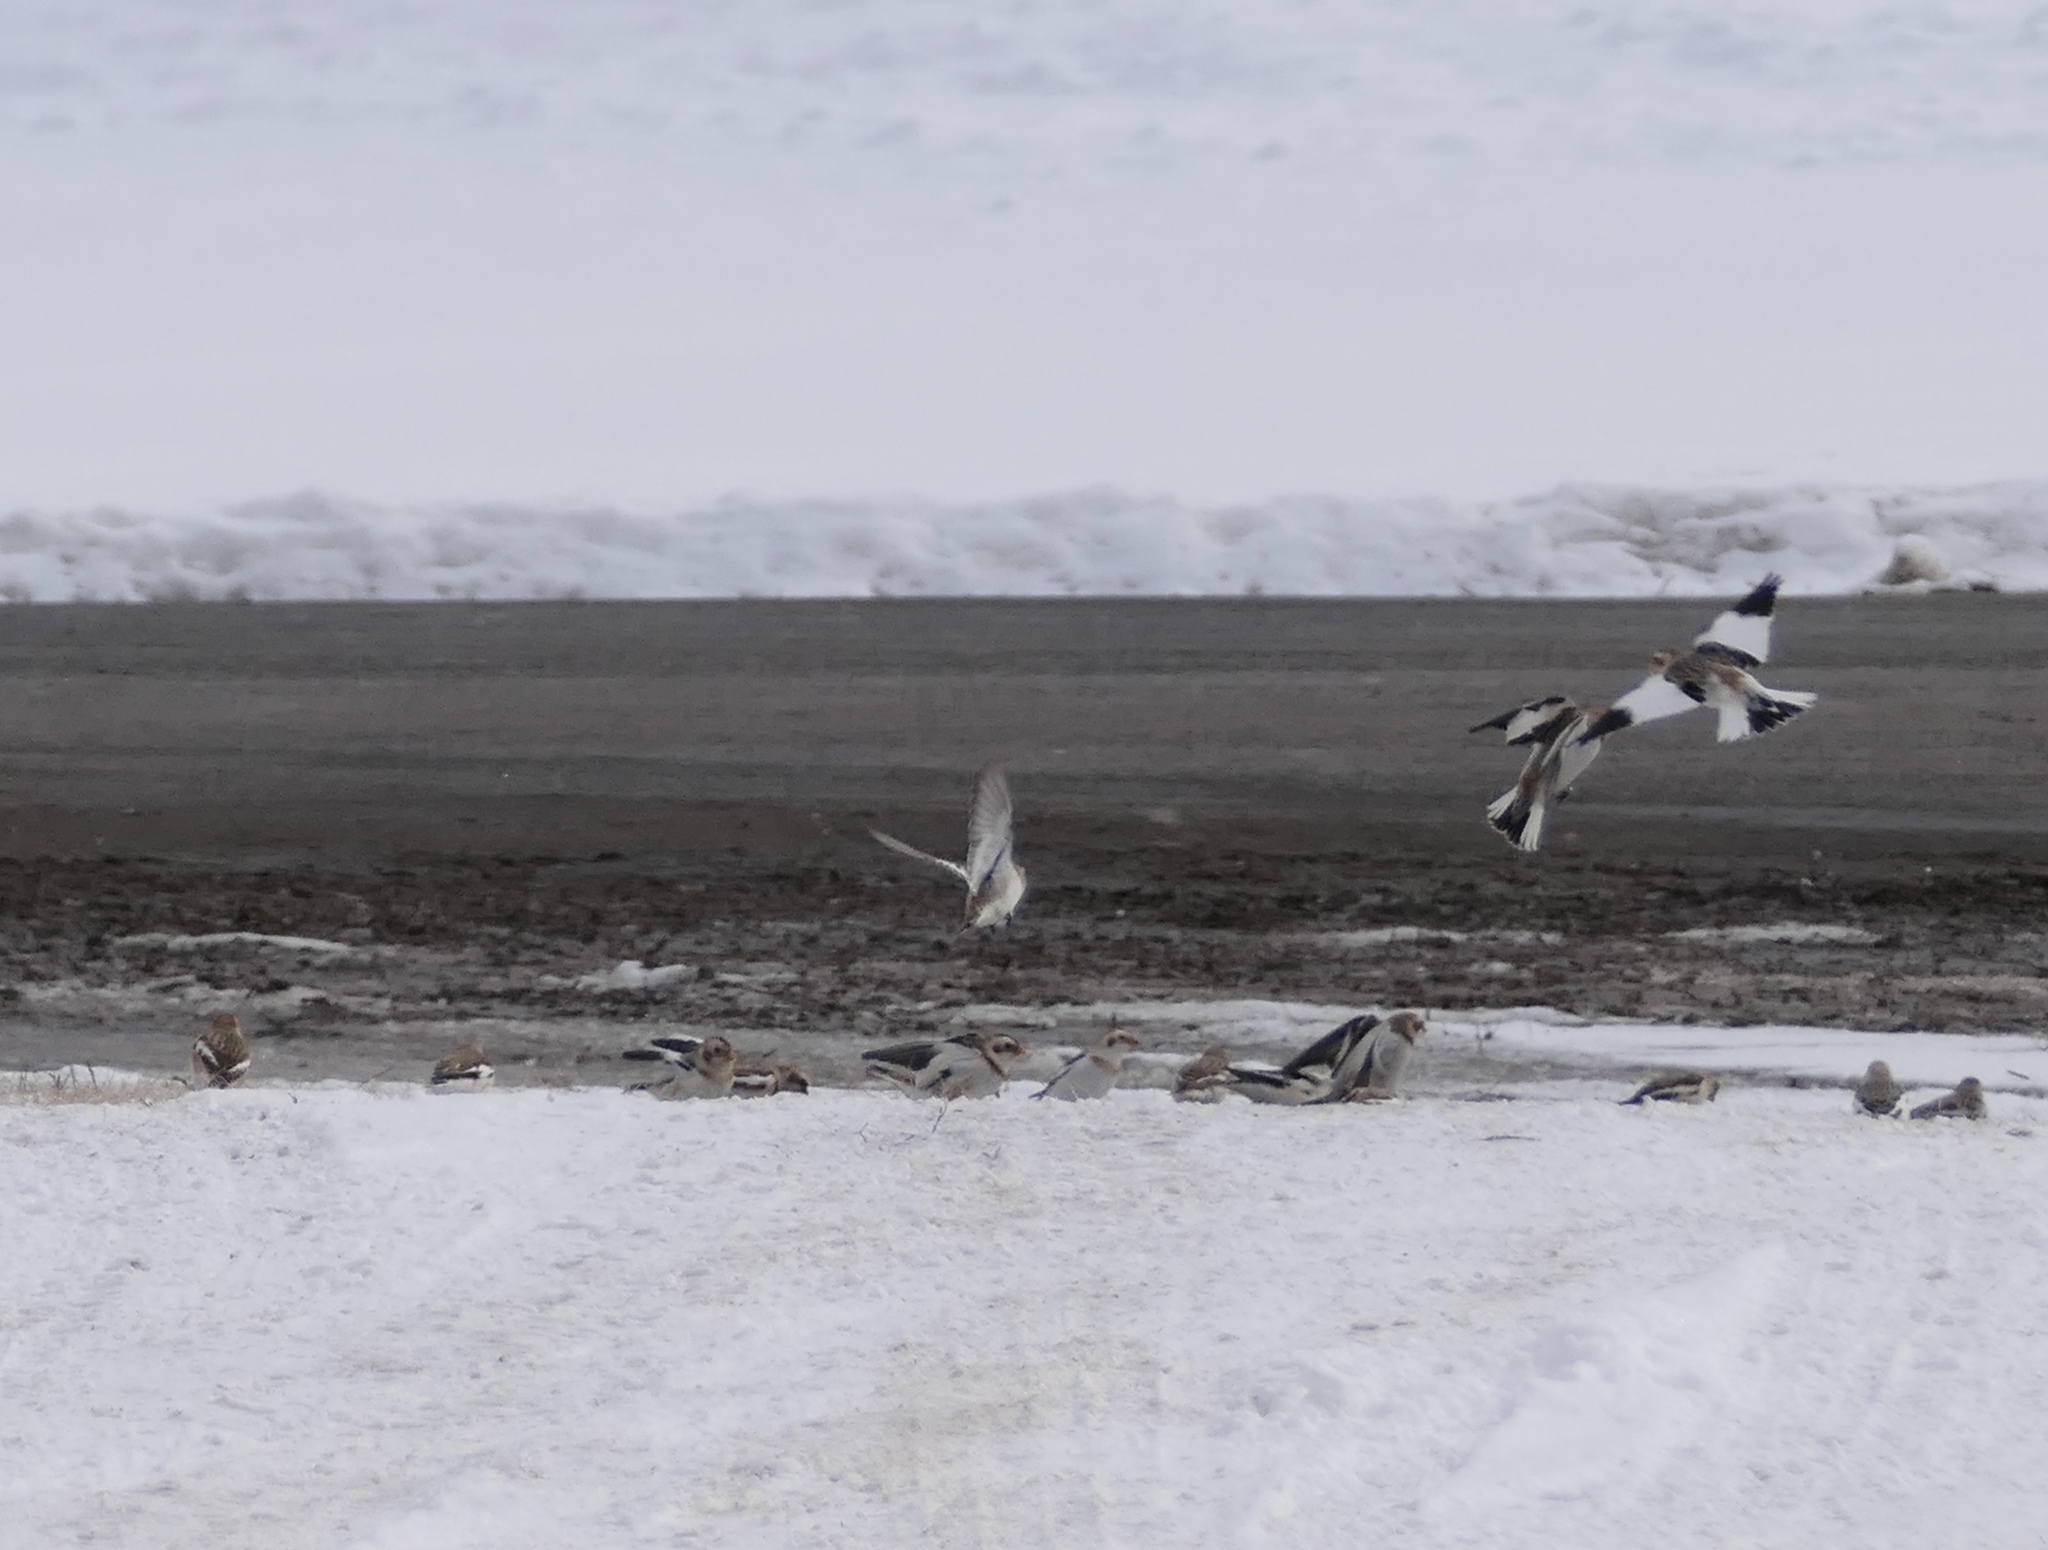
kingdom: Animalia
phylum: Chordata
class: Aves
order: Passeriformes
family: Calcariidae
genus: Plectrophenax
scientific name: Plectrophenax nivalis
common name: Snow bunting
